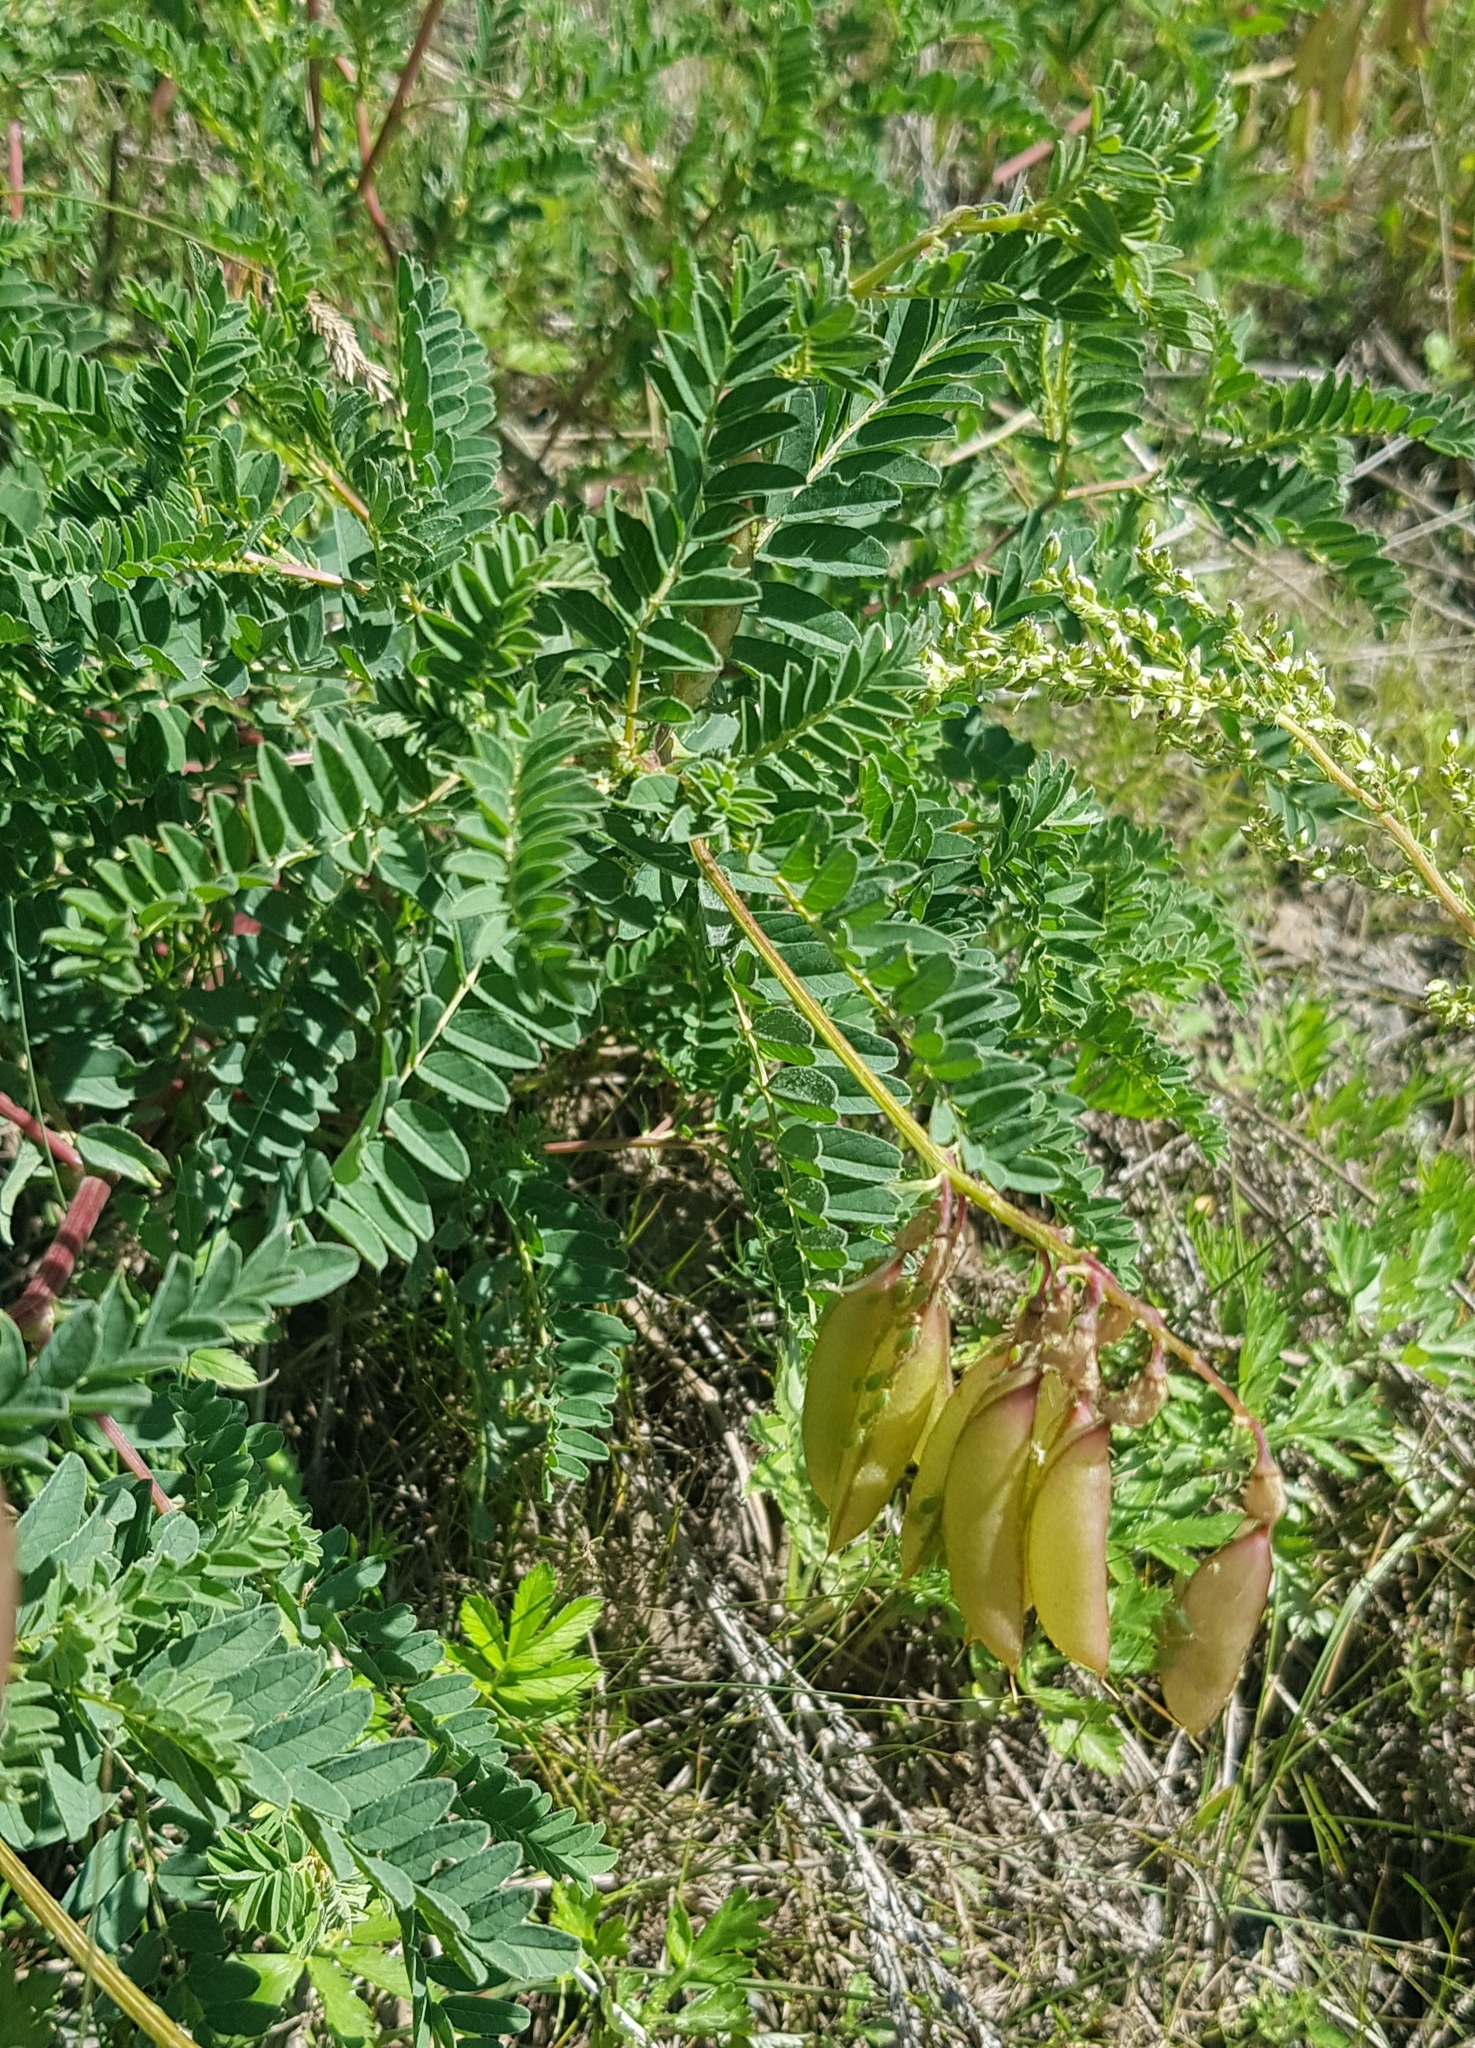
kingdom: Plantae
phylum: Tracheophyta
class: Magnoliopsida
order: Fabales
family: Fabaceae
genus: Astragalus
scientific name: Astragalus mongholicus
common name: Membranous milk-vetch
